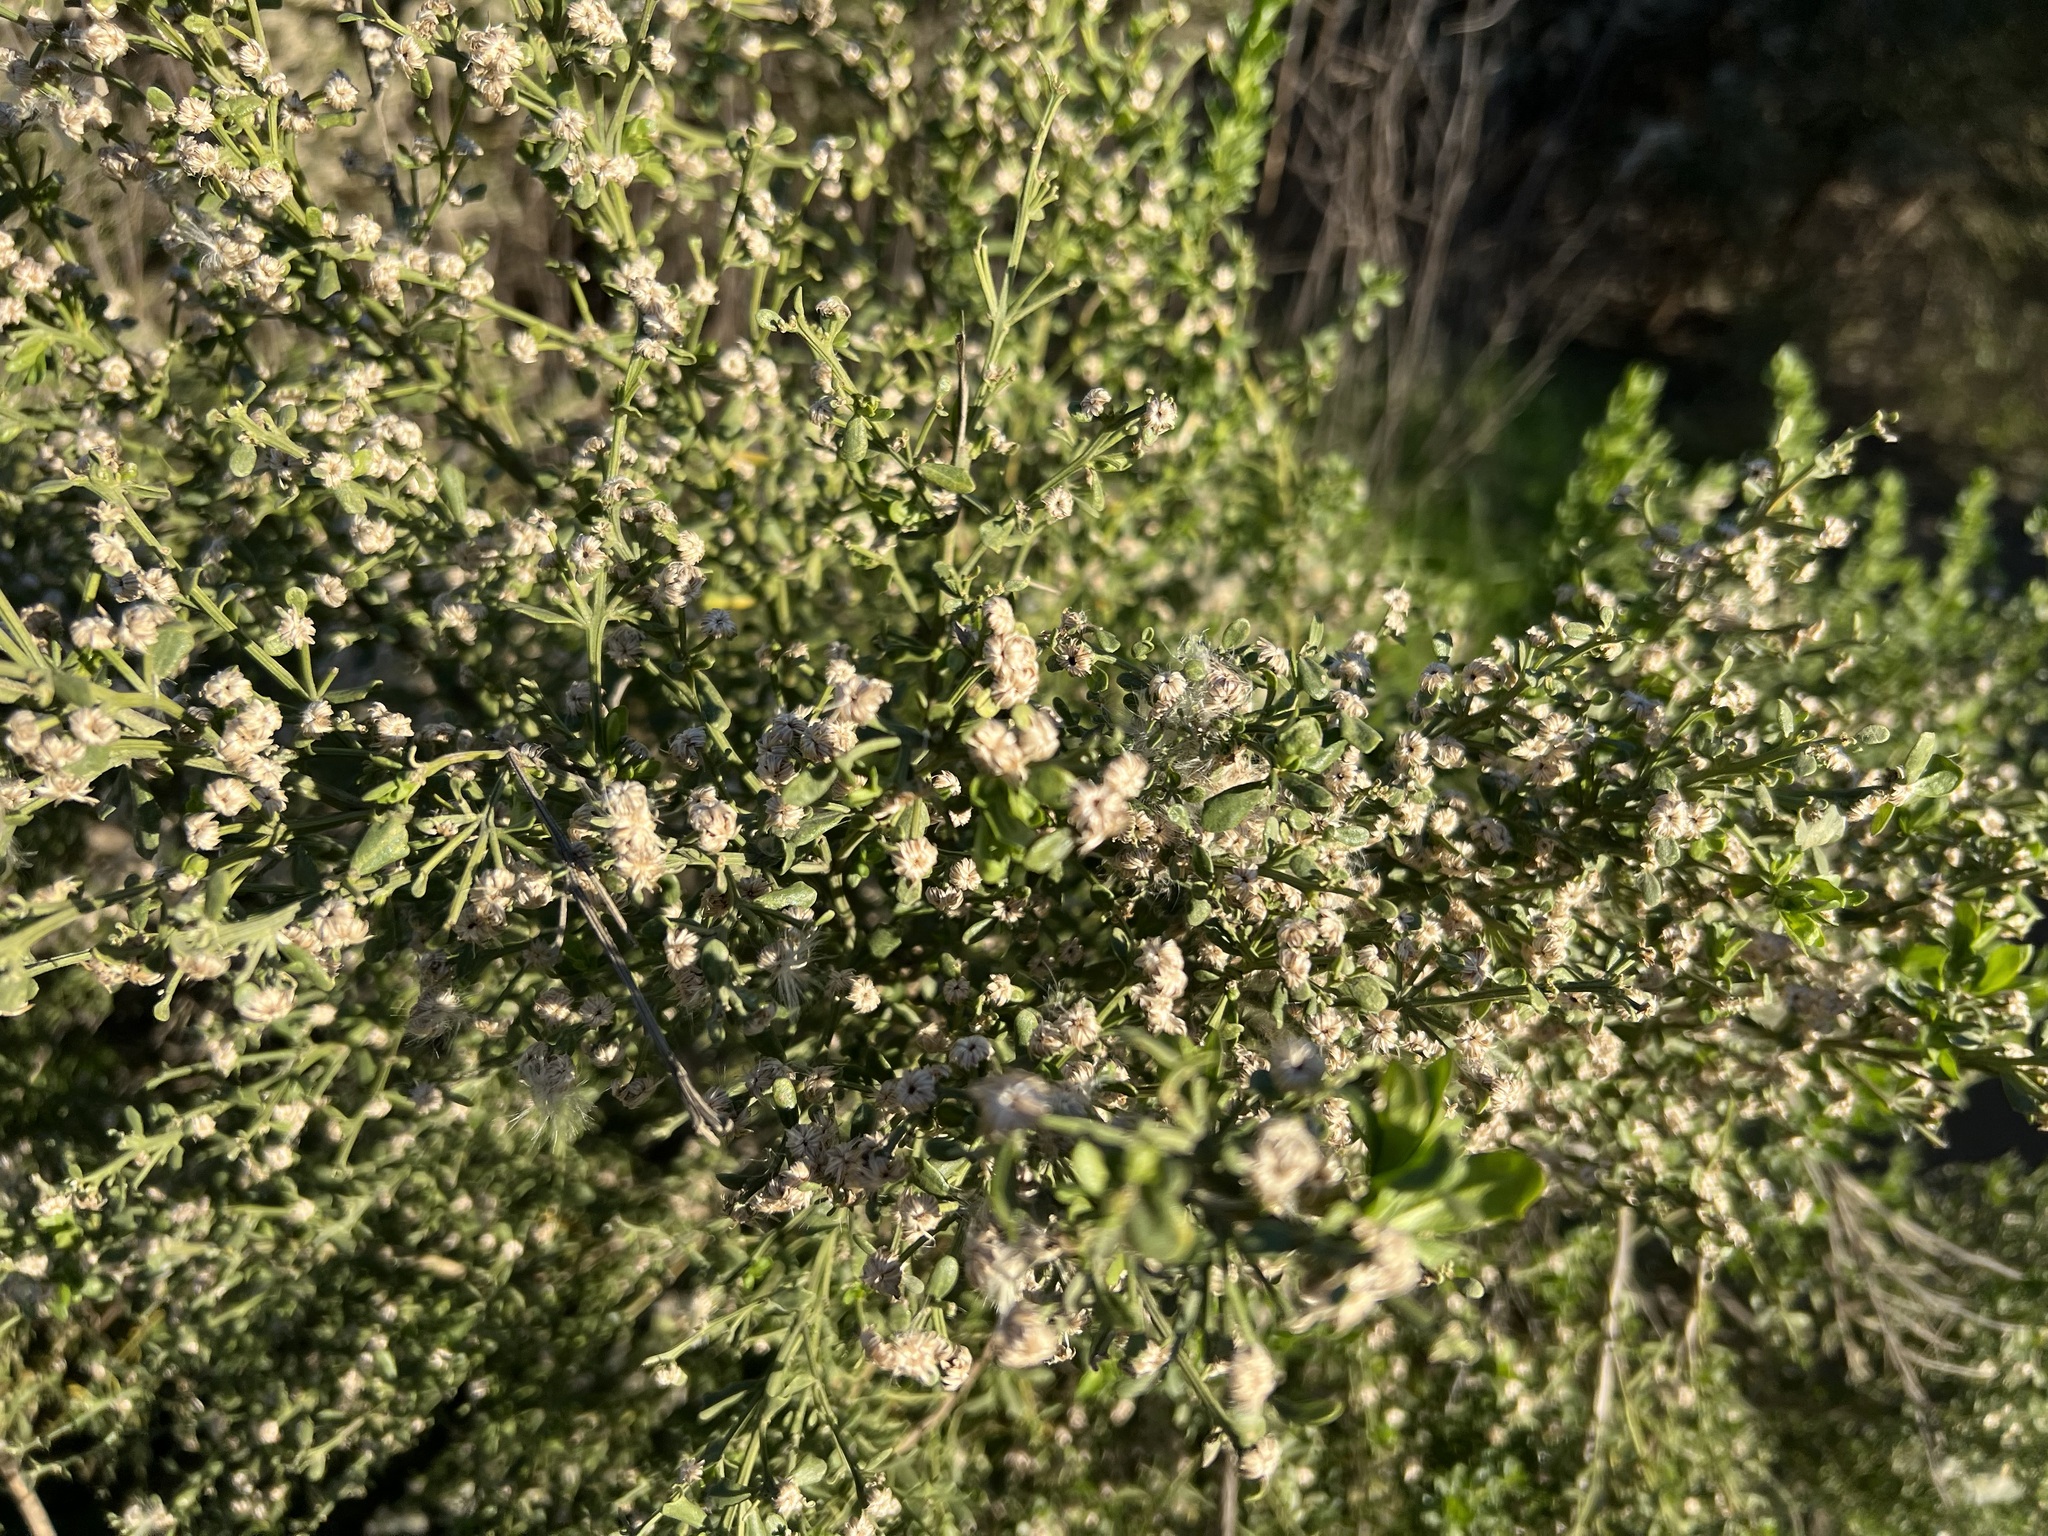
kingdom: Plantae
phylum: Tracheophyta
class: Magnoliopsida
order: Asterales
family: Asteraceae
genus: Baccharis
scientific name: Baccharis pilularis
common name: Coyotebrush
